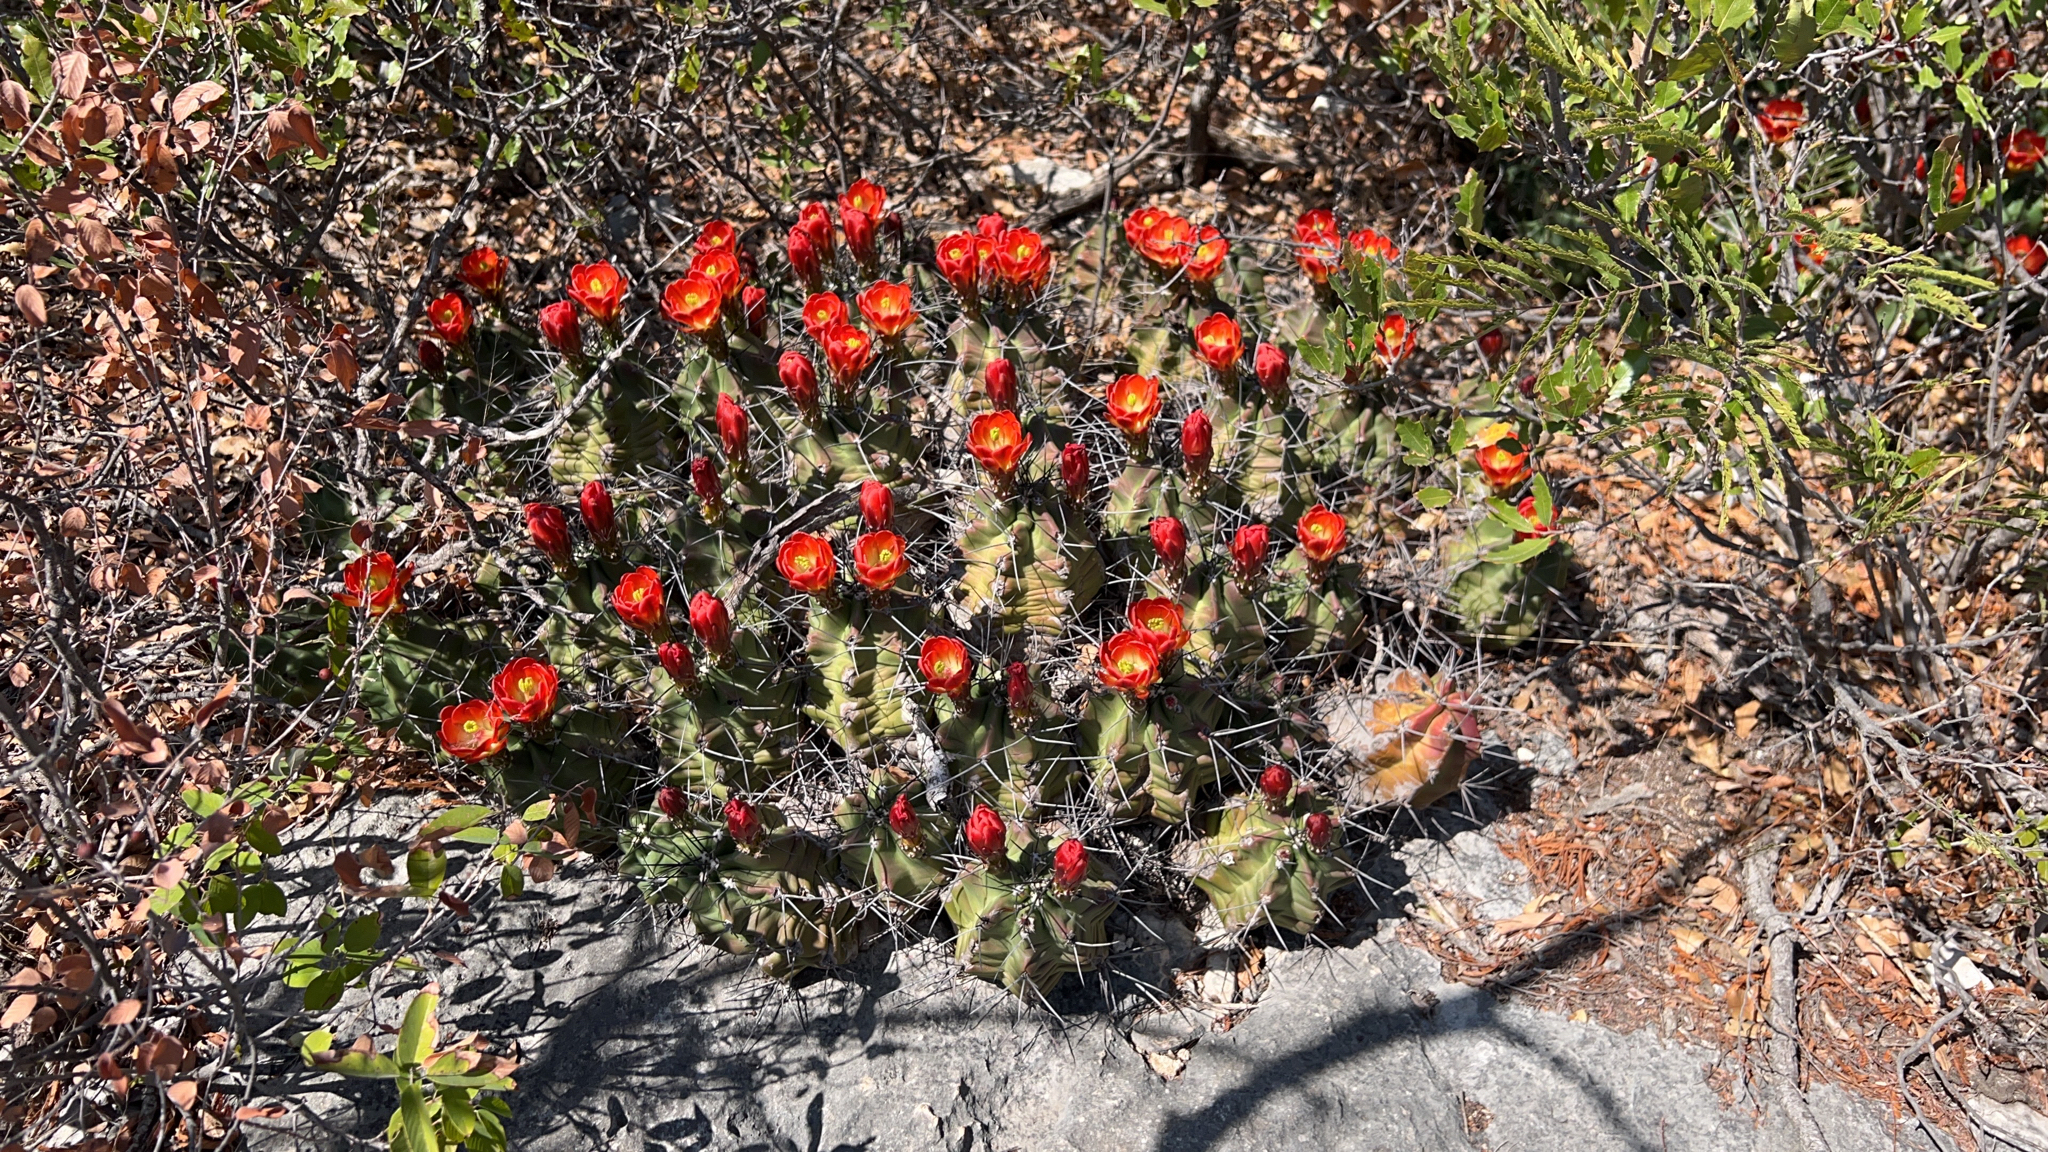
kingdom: Plantae
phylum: Tracheophyta
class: Magnoliopsida
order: Caryophyllales
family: Cactaceae
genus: Echinocereus
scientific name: Echinocereus coccineus
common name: Scarlet hedgehog cactus
